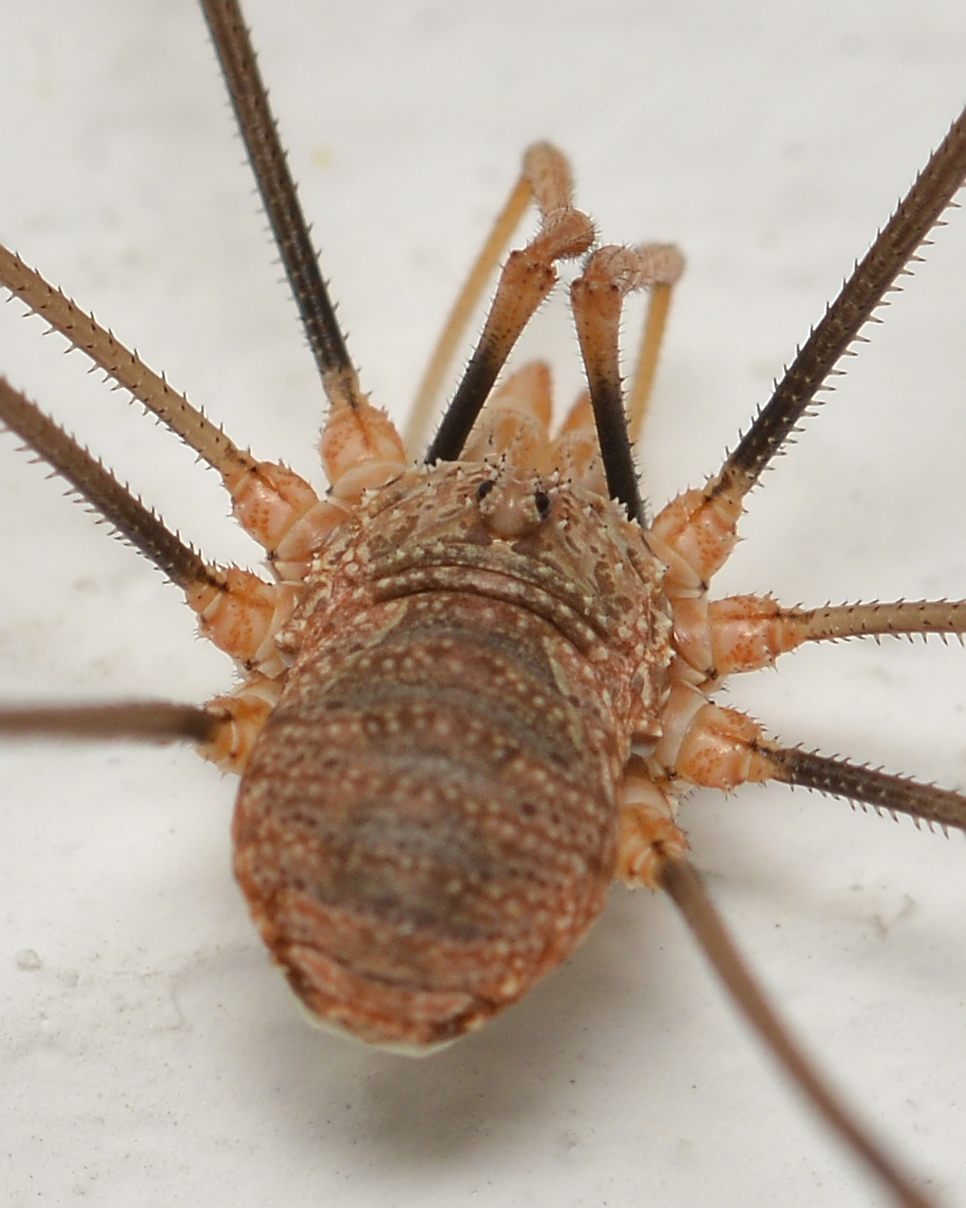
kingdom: Animalia
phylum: Arthropoda
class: Arachnida
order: Opiliones
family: Phalangiidae
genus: Phalangium
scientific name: Phalangium opilio
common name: Daddy longleg
